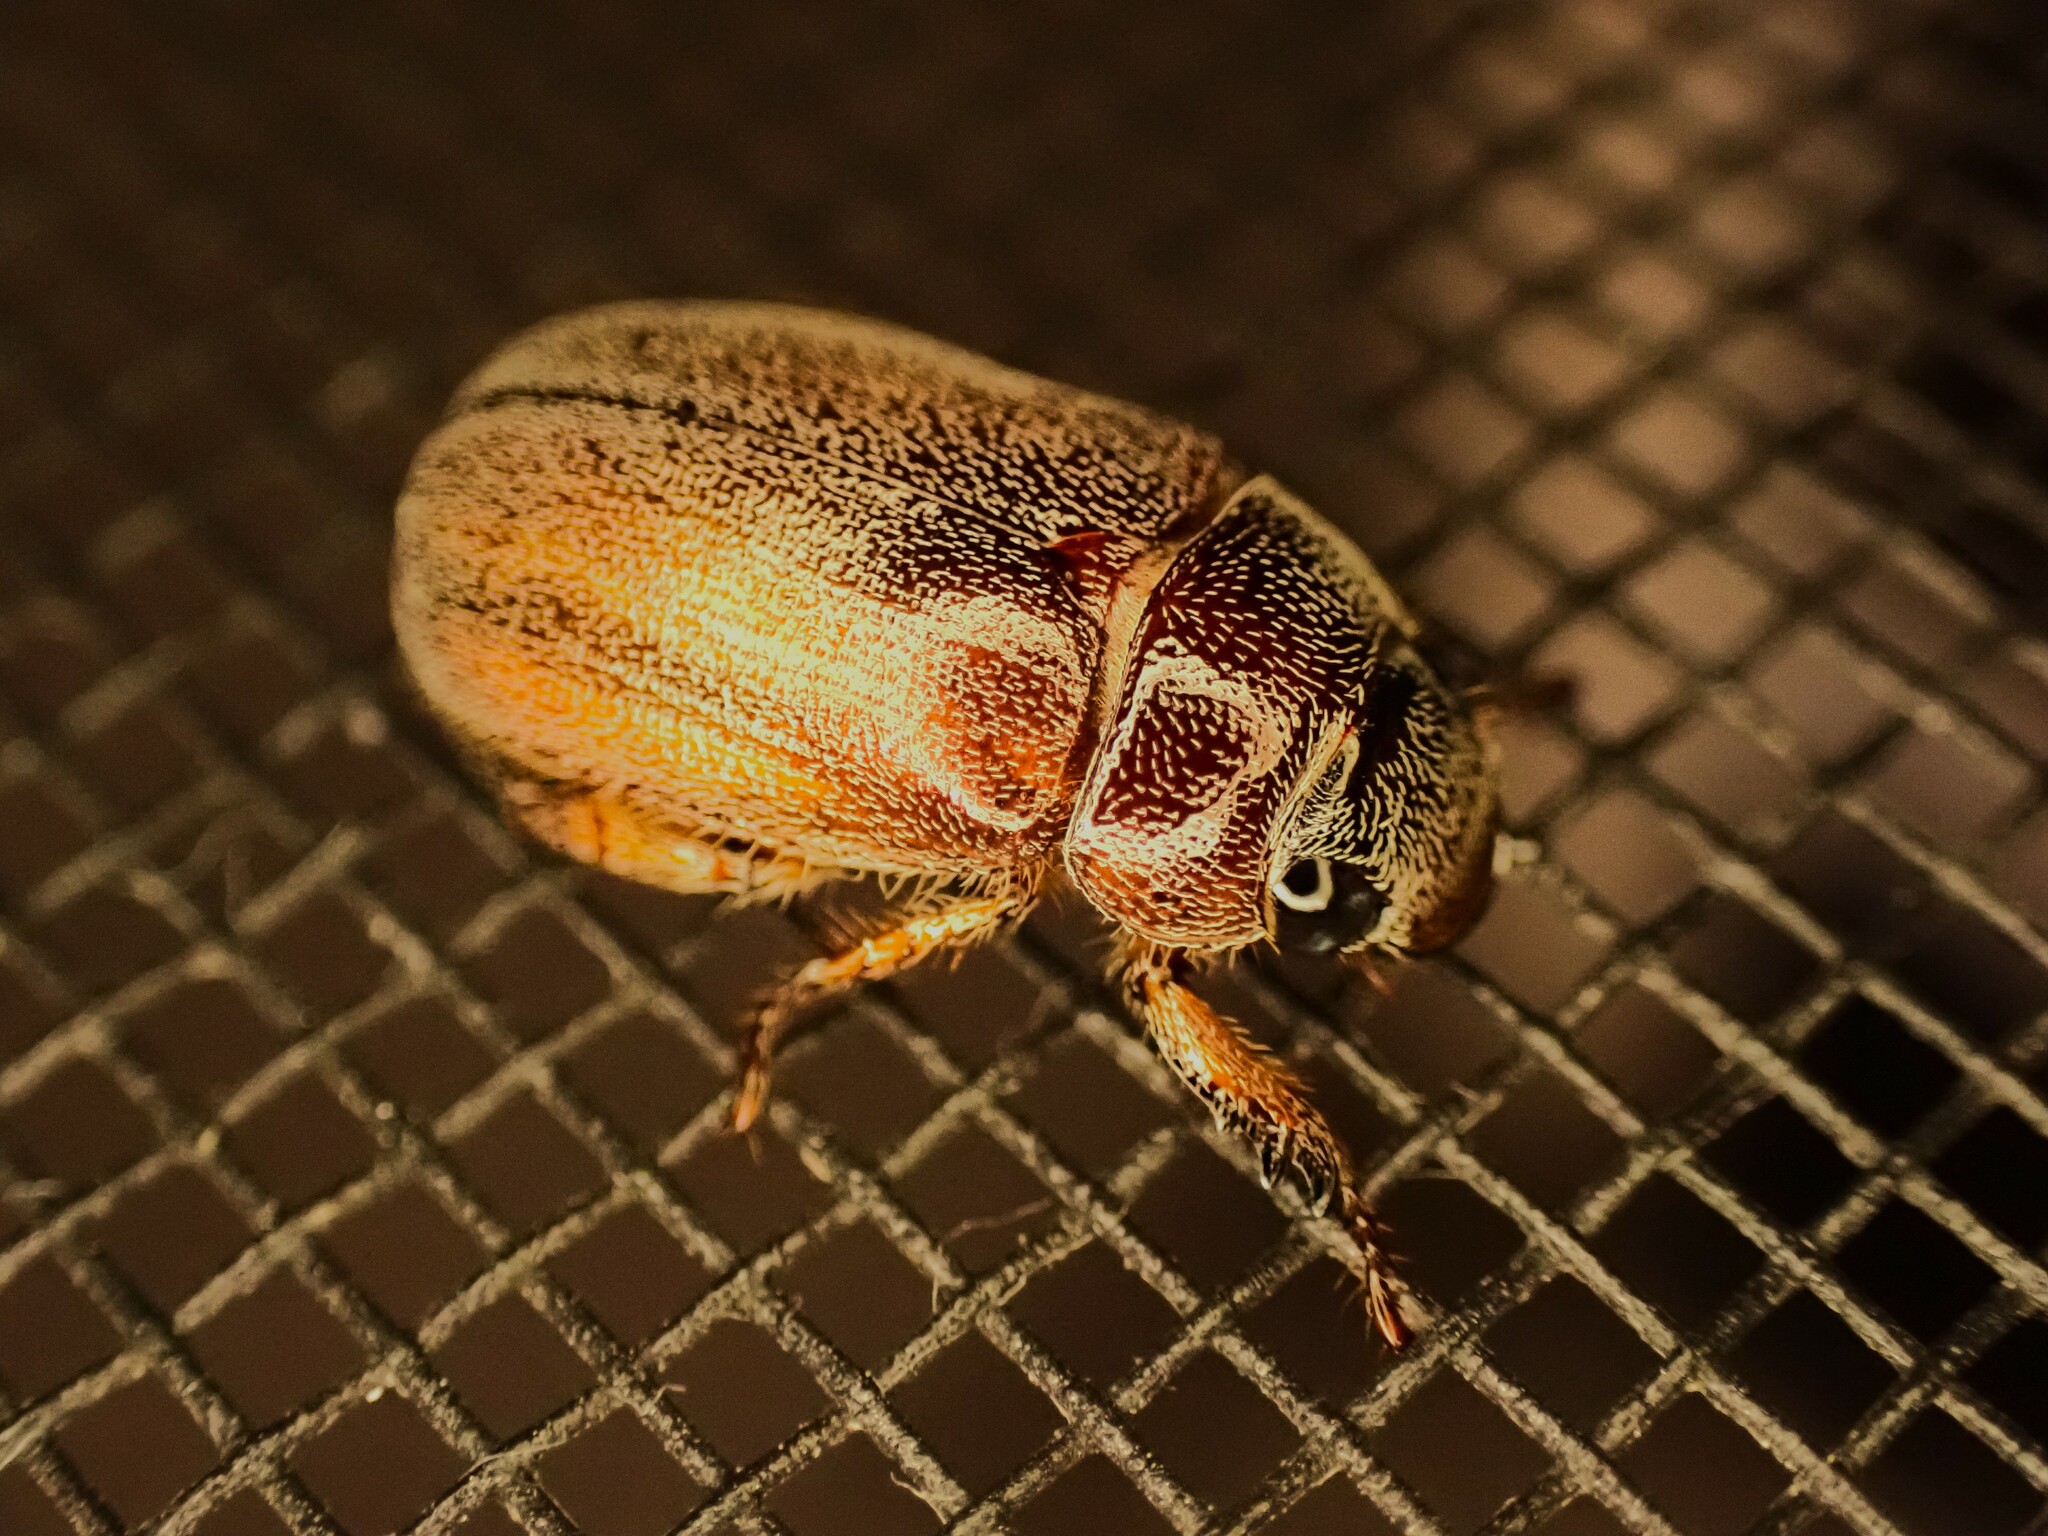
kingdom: Animalia
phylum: Arthropoda
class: Insecta
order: Coleoptera
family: Scarabaeidae
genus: Adoretus
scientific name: Adoretus sinicus
